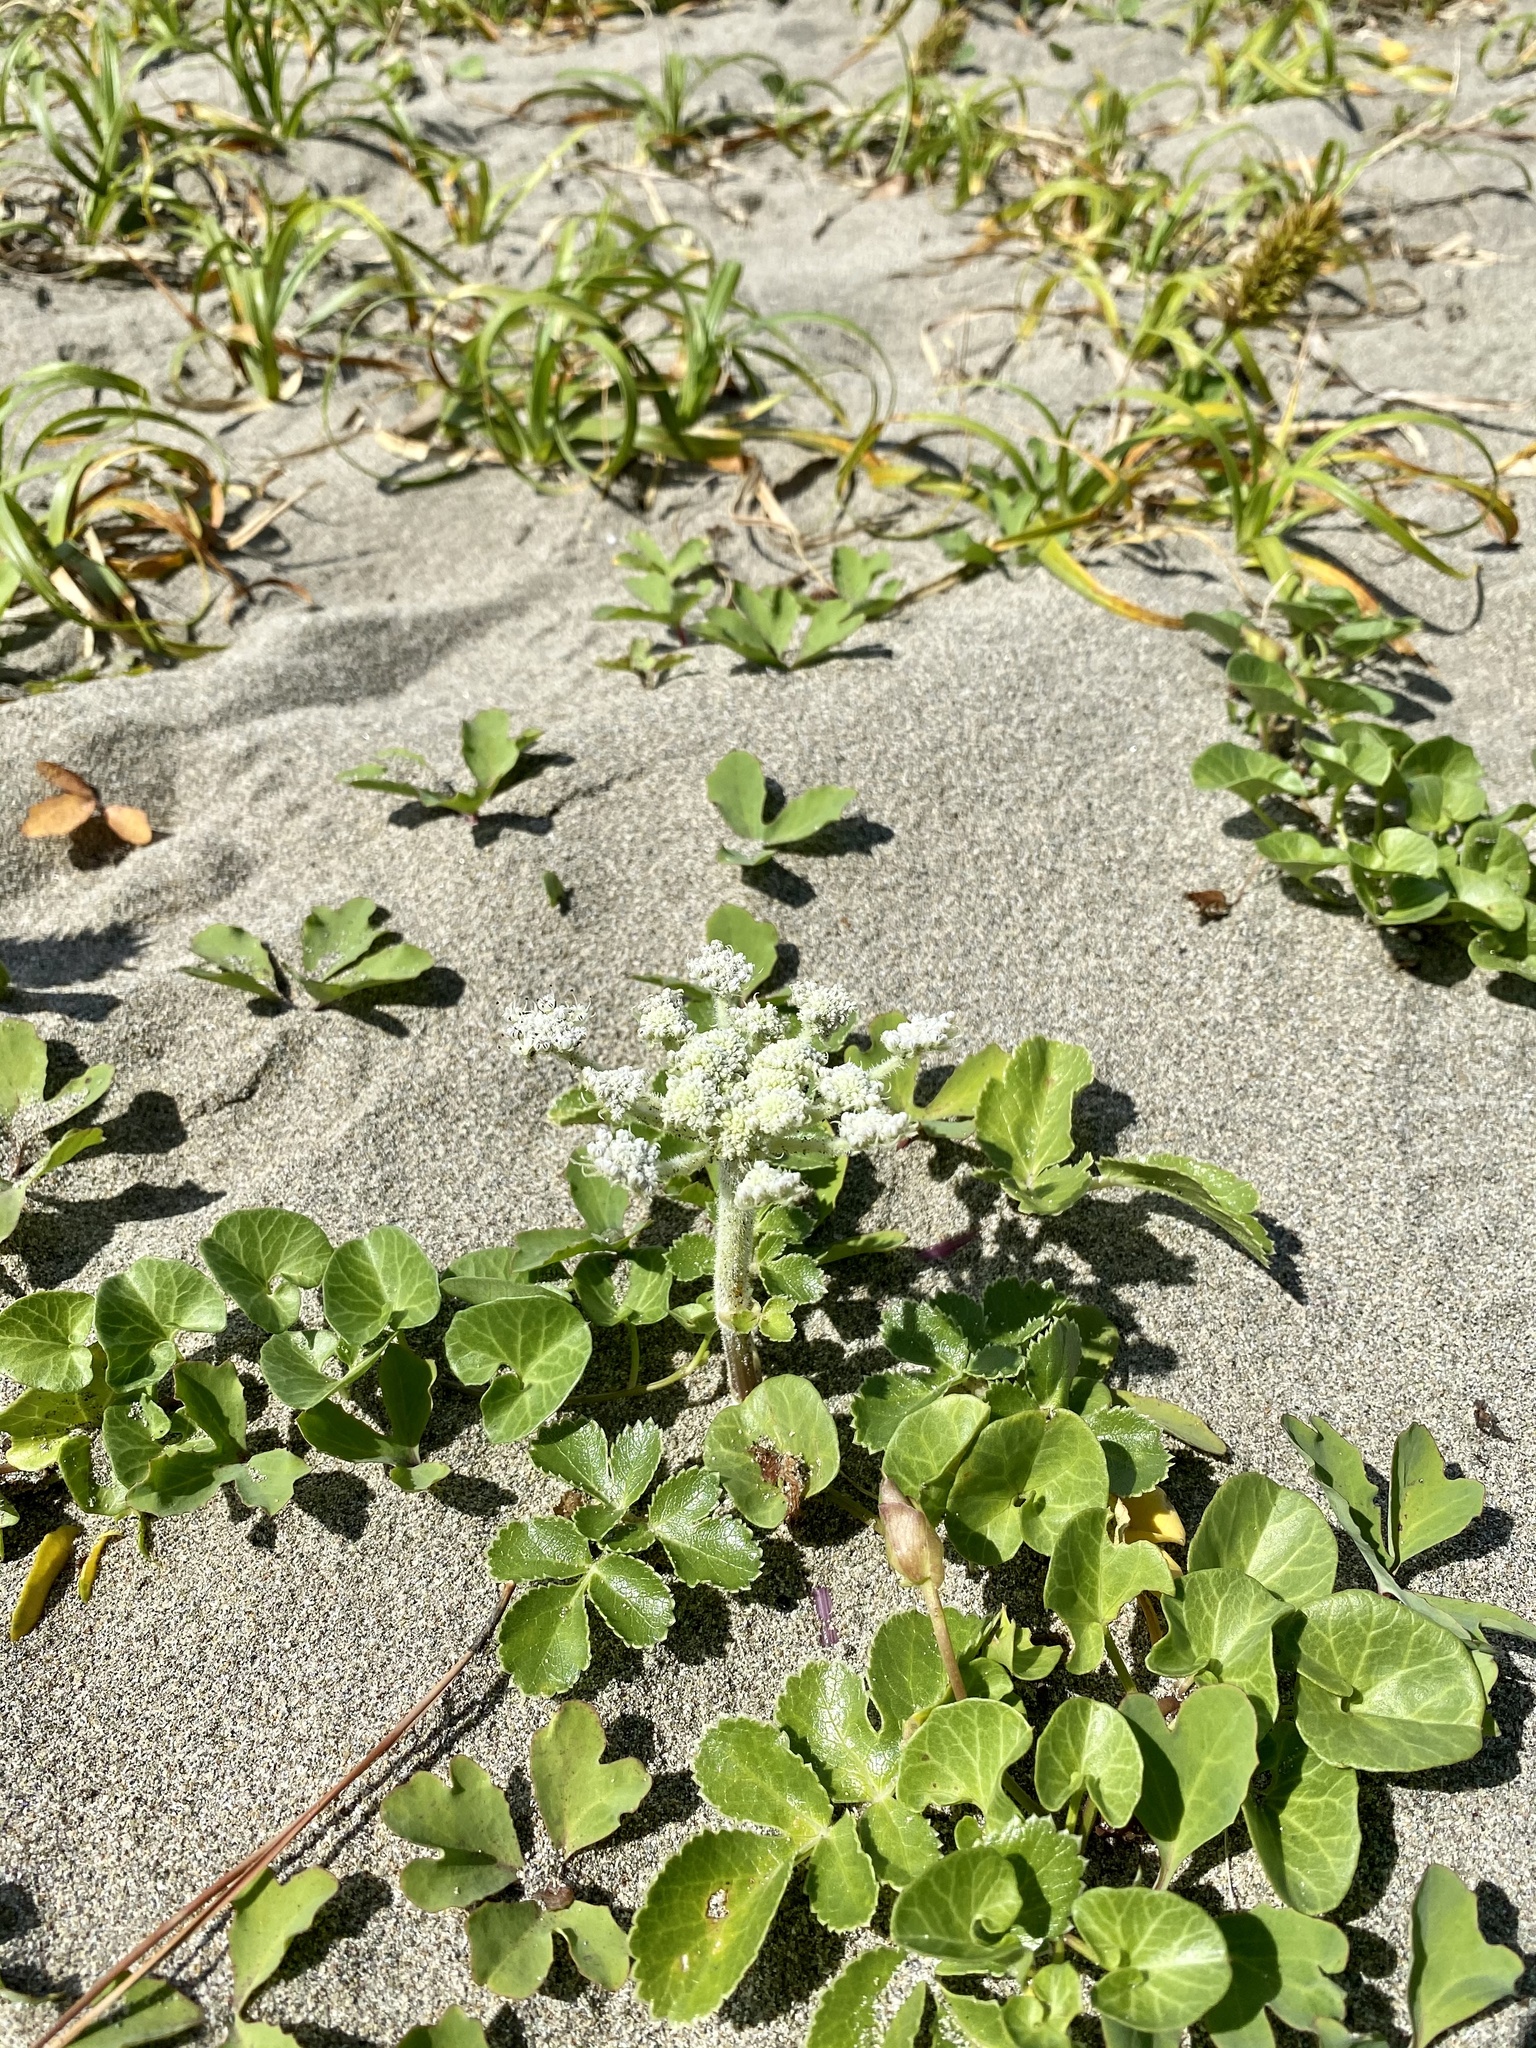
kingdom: Plantae
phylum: Tracheophyta
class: Magnoliopsida
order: Apiales
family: Apiaceae
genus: Glehnia
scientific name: Glehnia littoralis
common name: Beach silvertop
